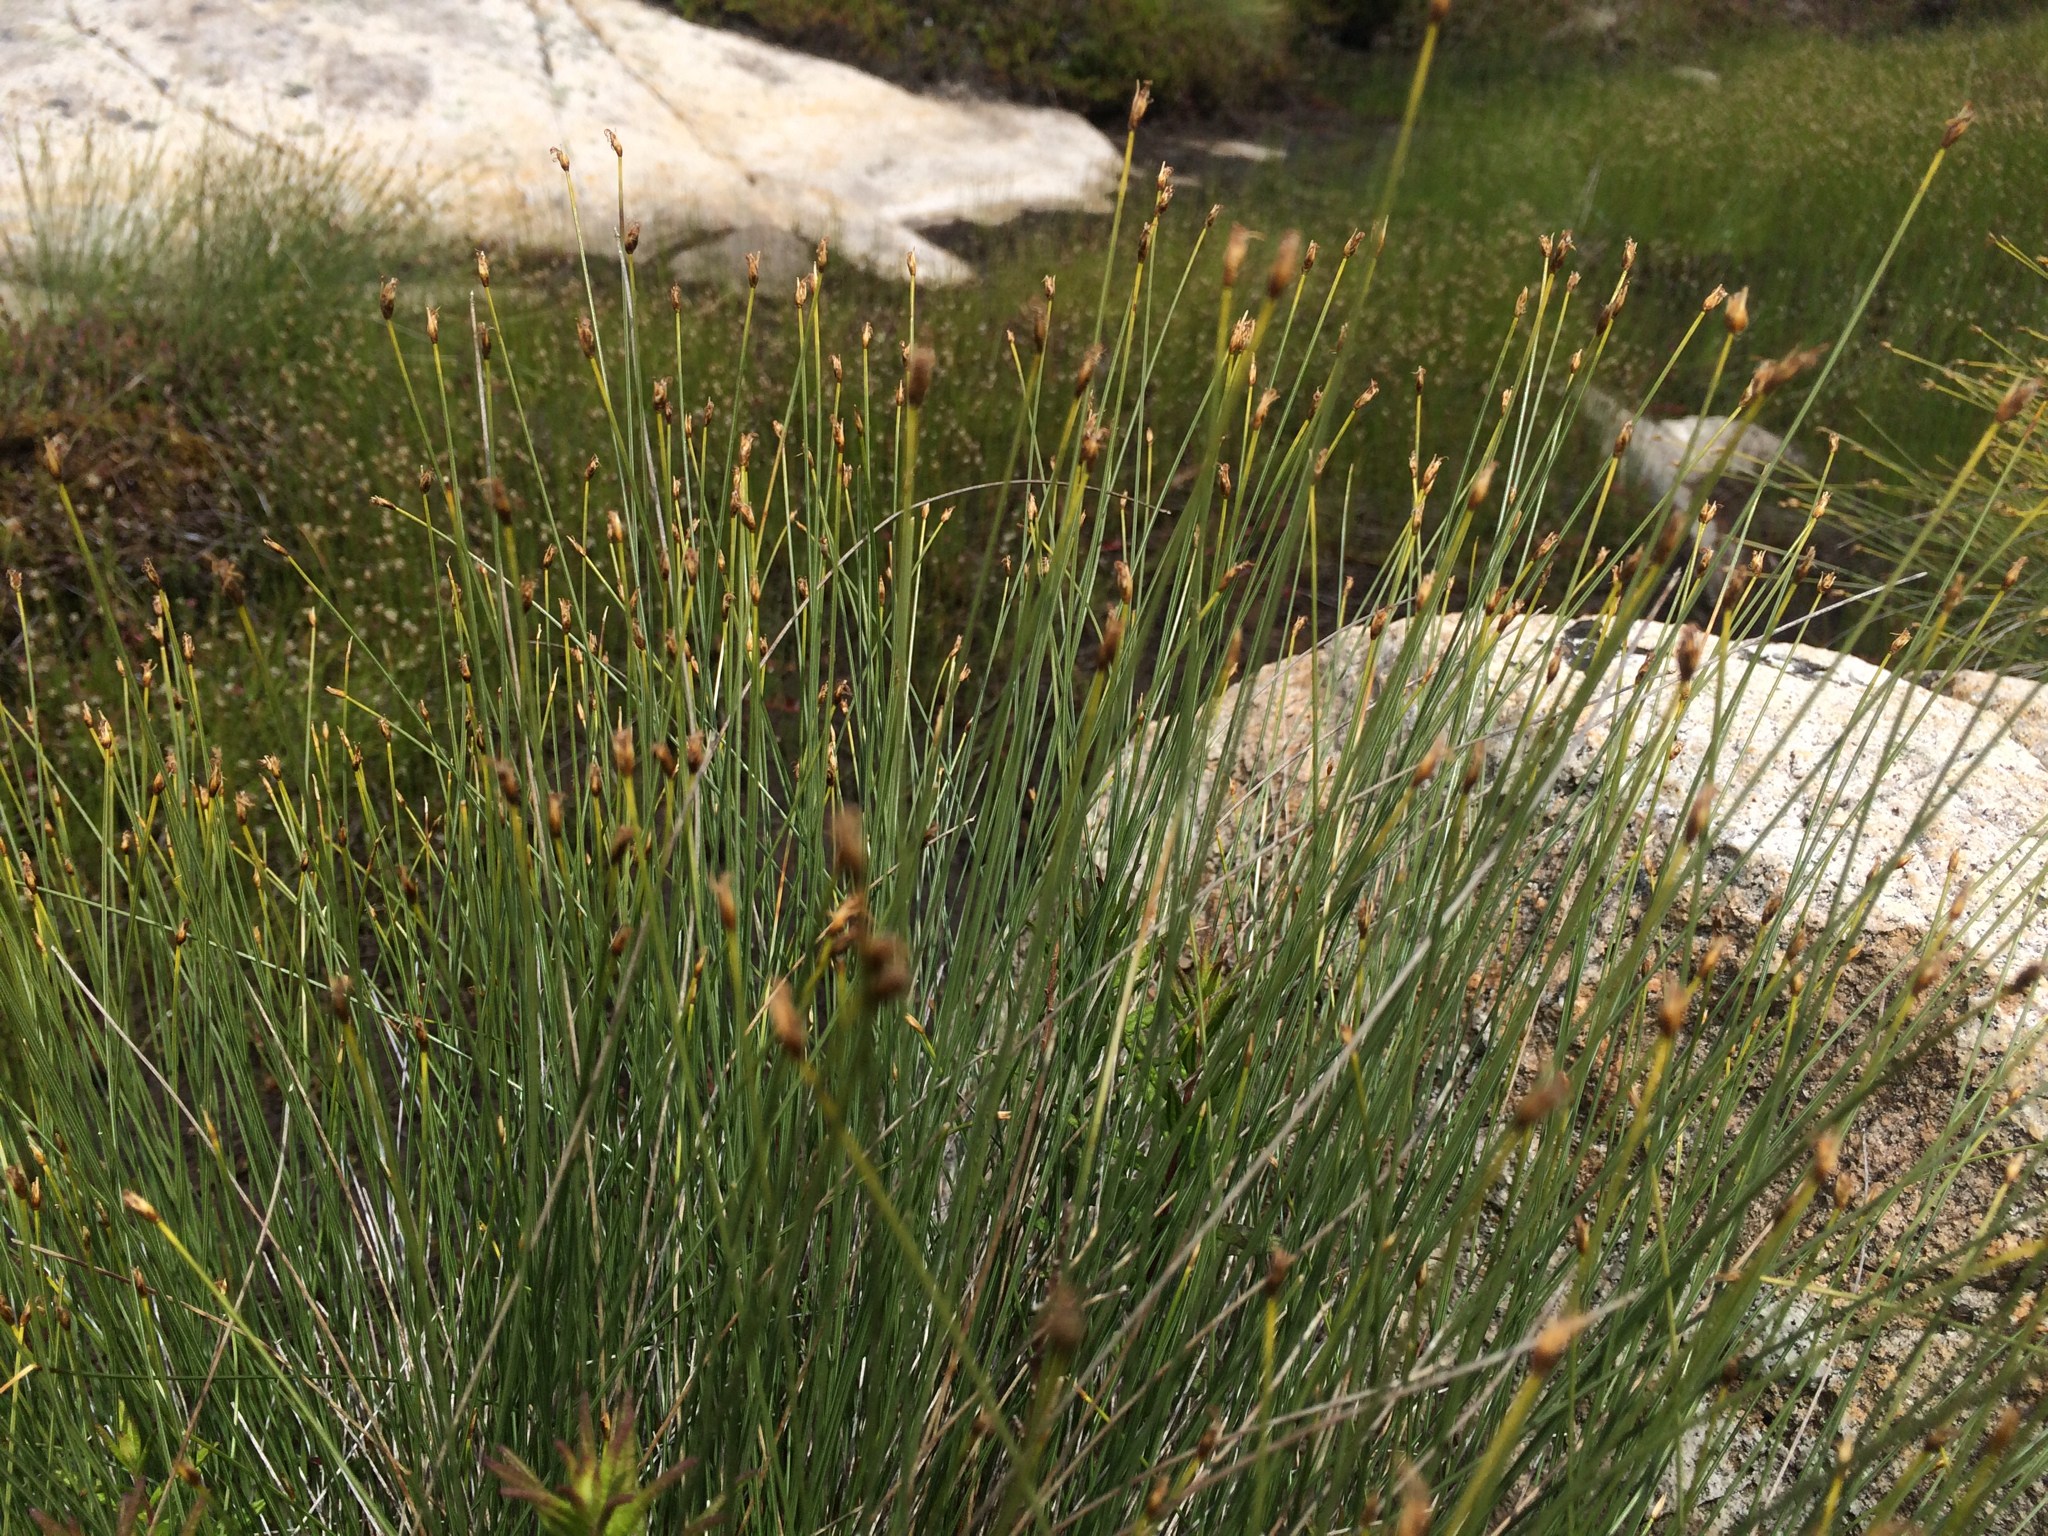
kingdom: Plantae
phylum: Tracheophyta
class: Liliopsida
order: Poales
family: Cyperaceae
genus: Trichophorum
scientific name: Trichophorum cespitosum
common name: Cespitose bulrush
